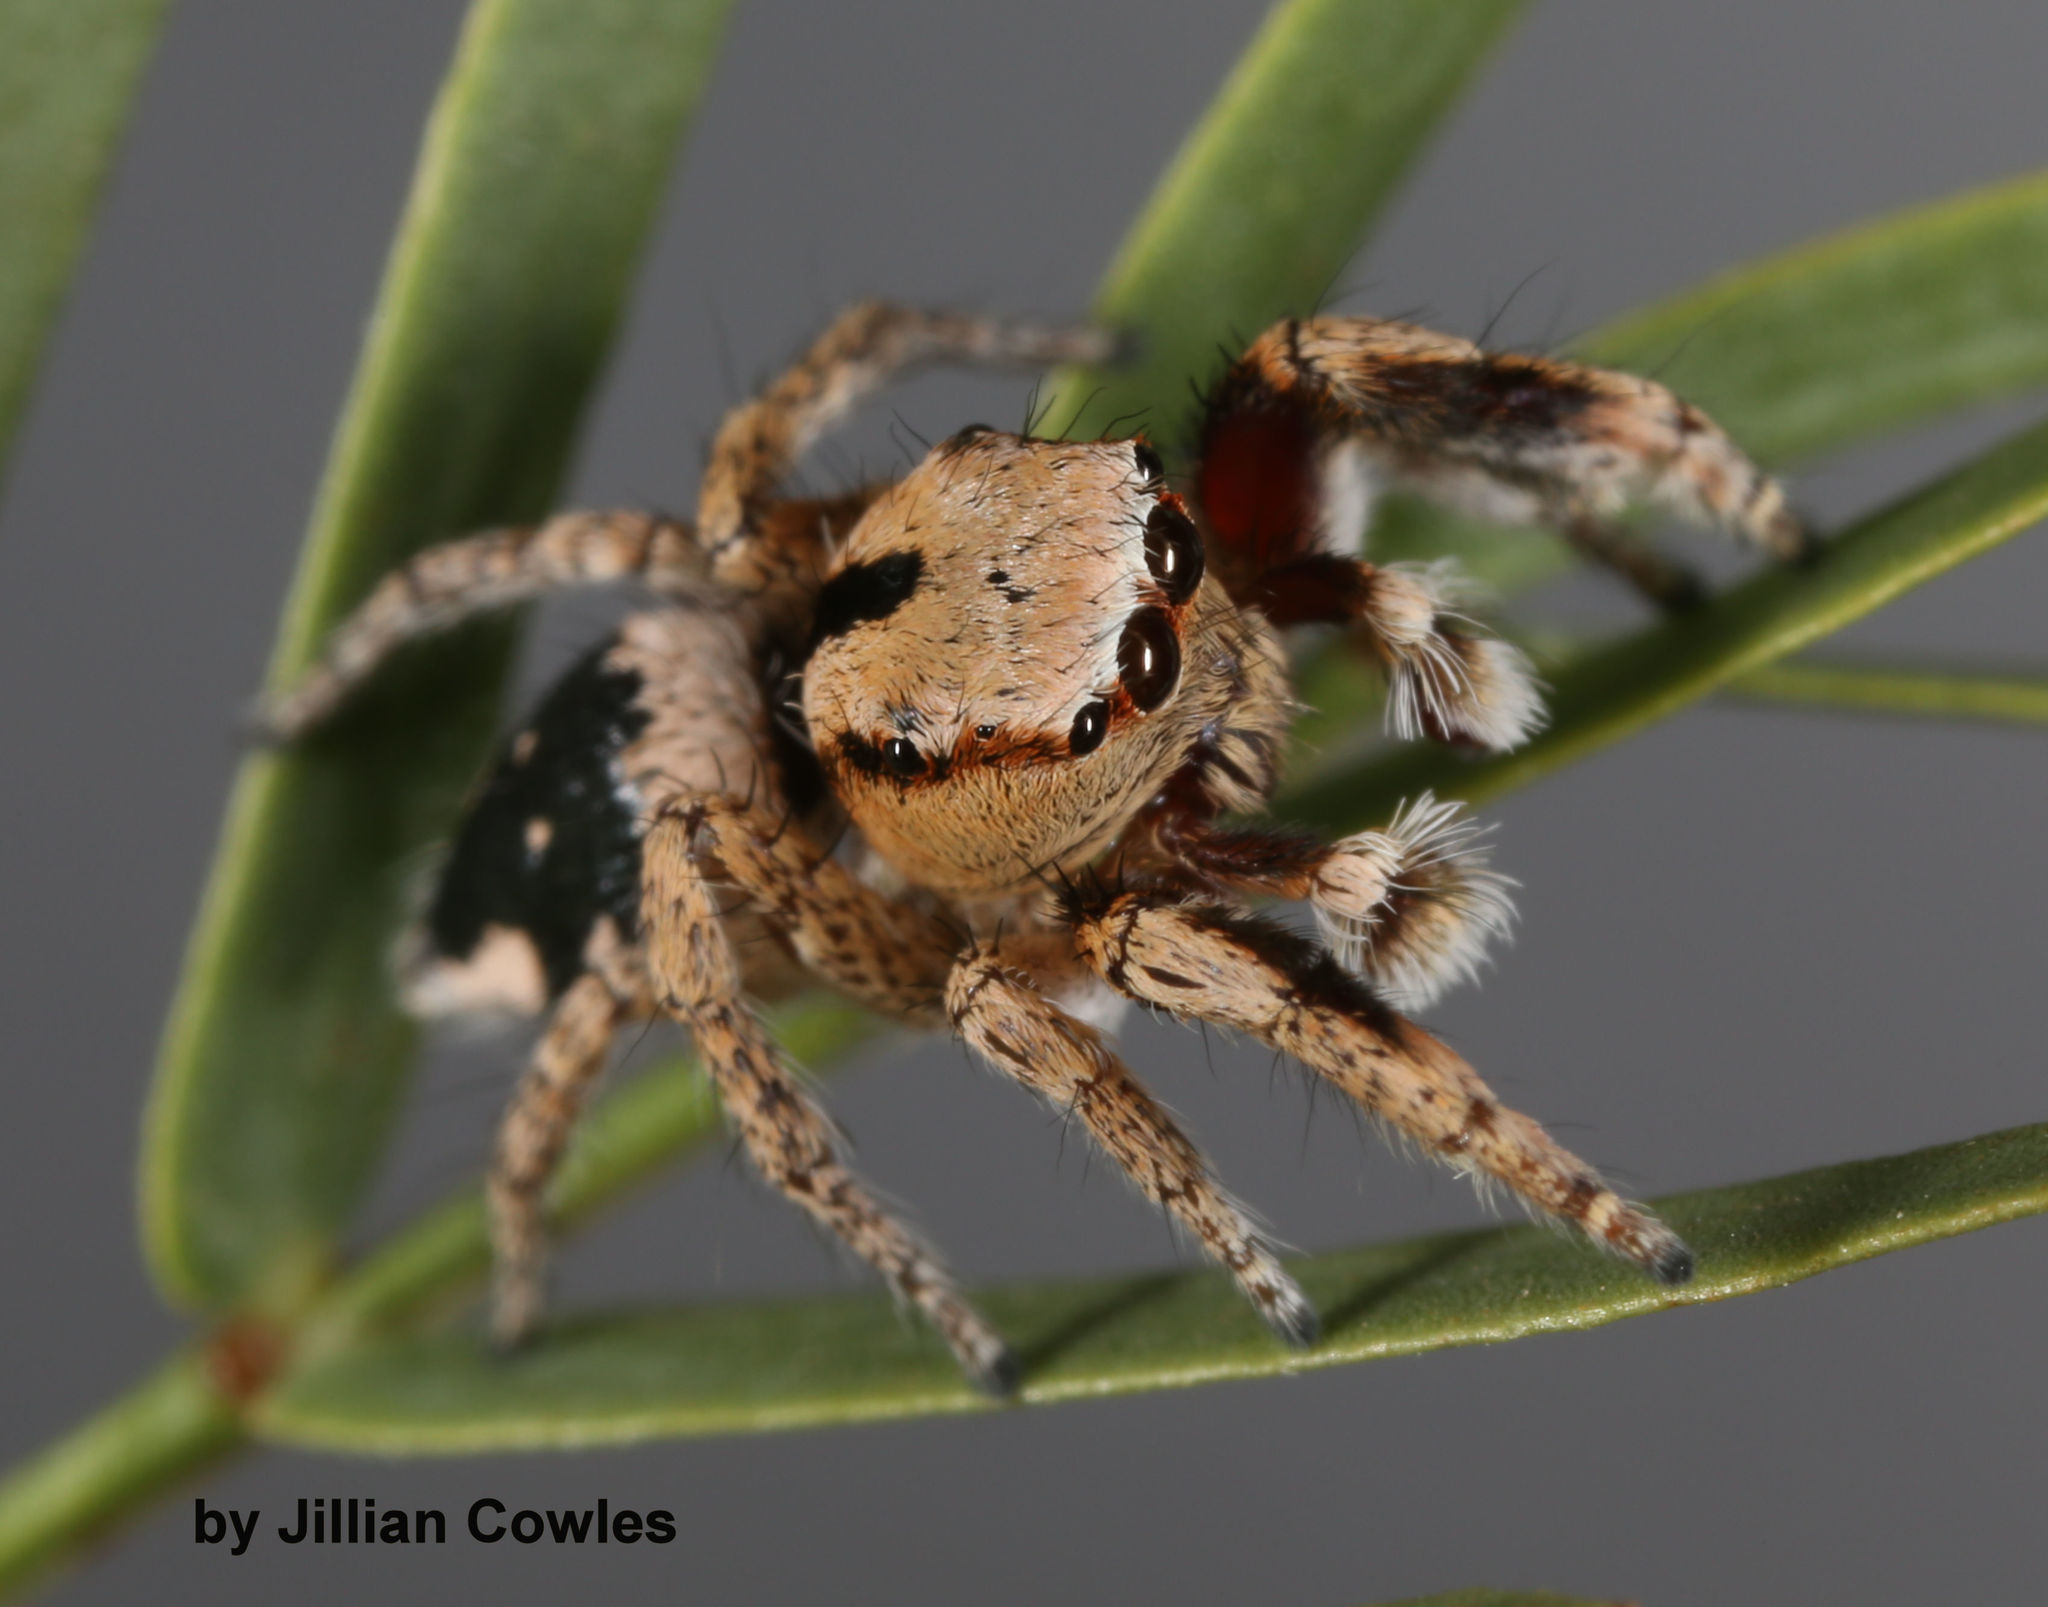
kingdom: Animalia
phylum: Arthropoda
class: Arachnida
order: Araneae
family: Salticidae
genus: Habronattus
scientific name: Habronattus tranquillus
